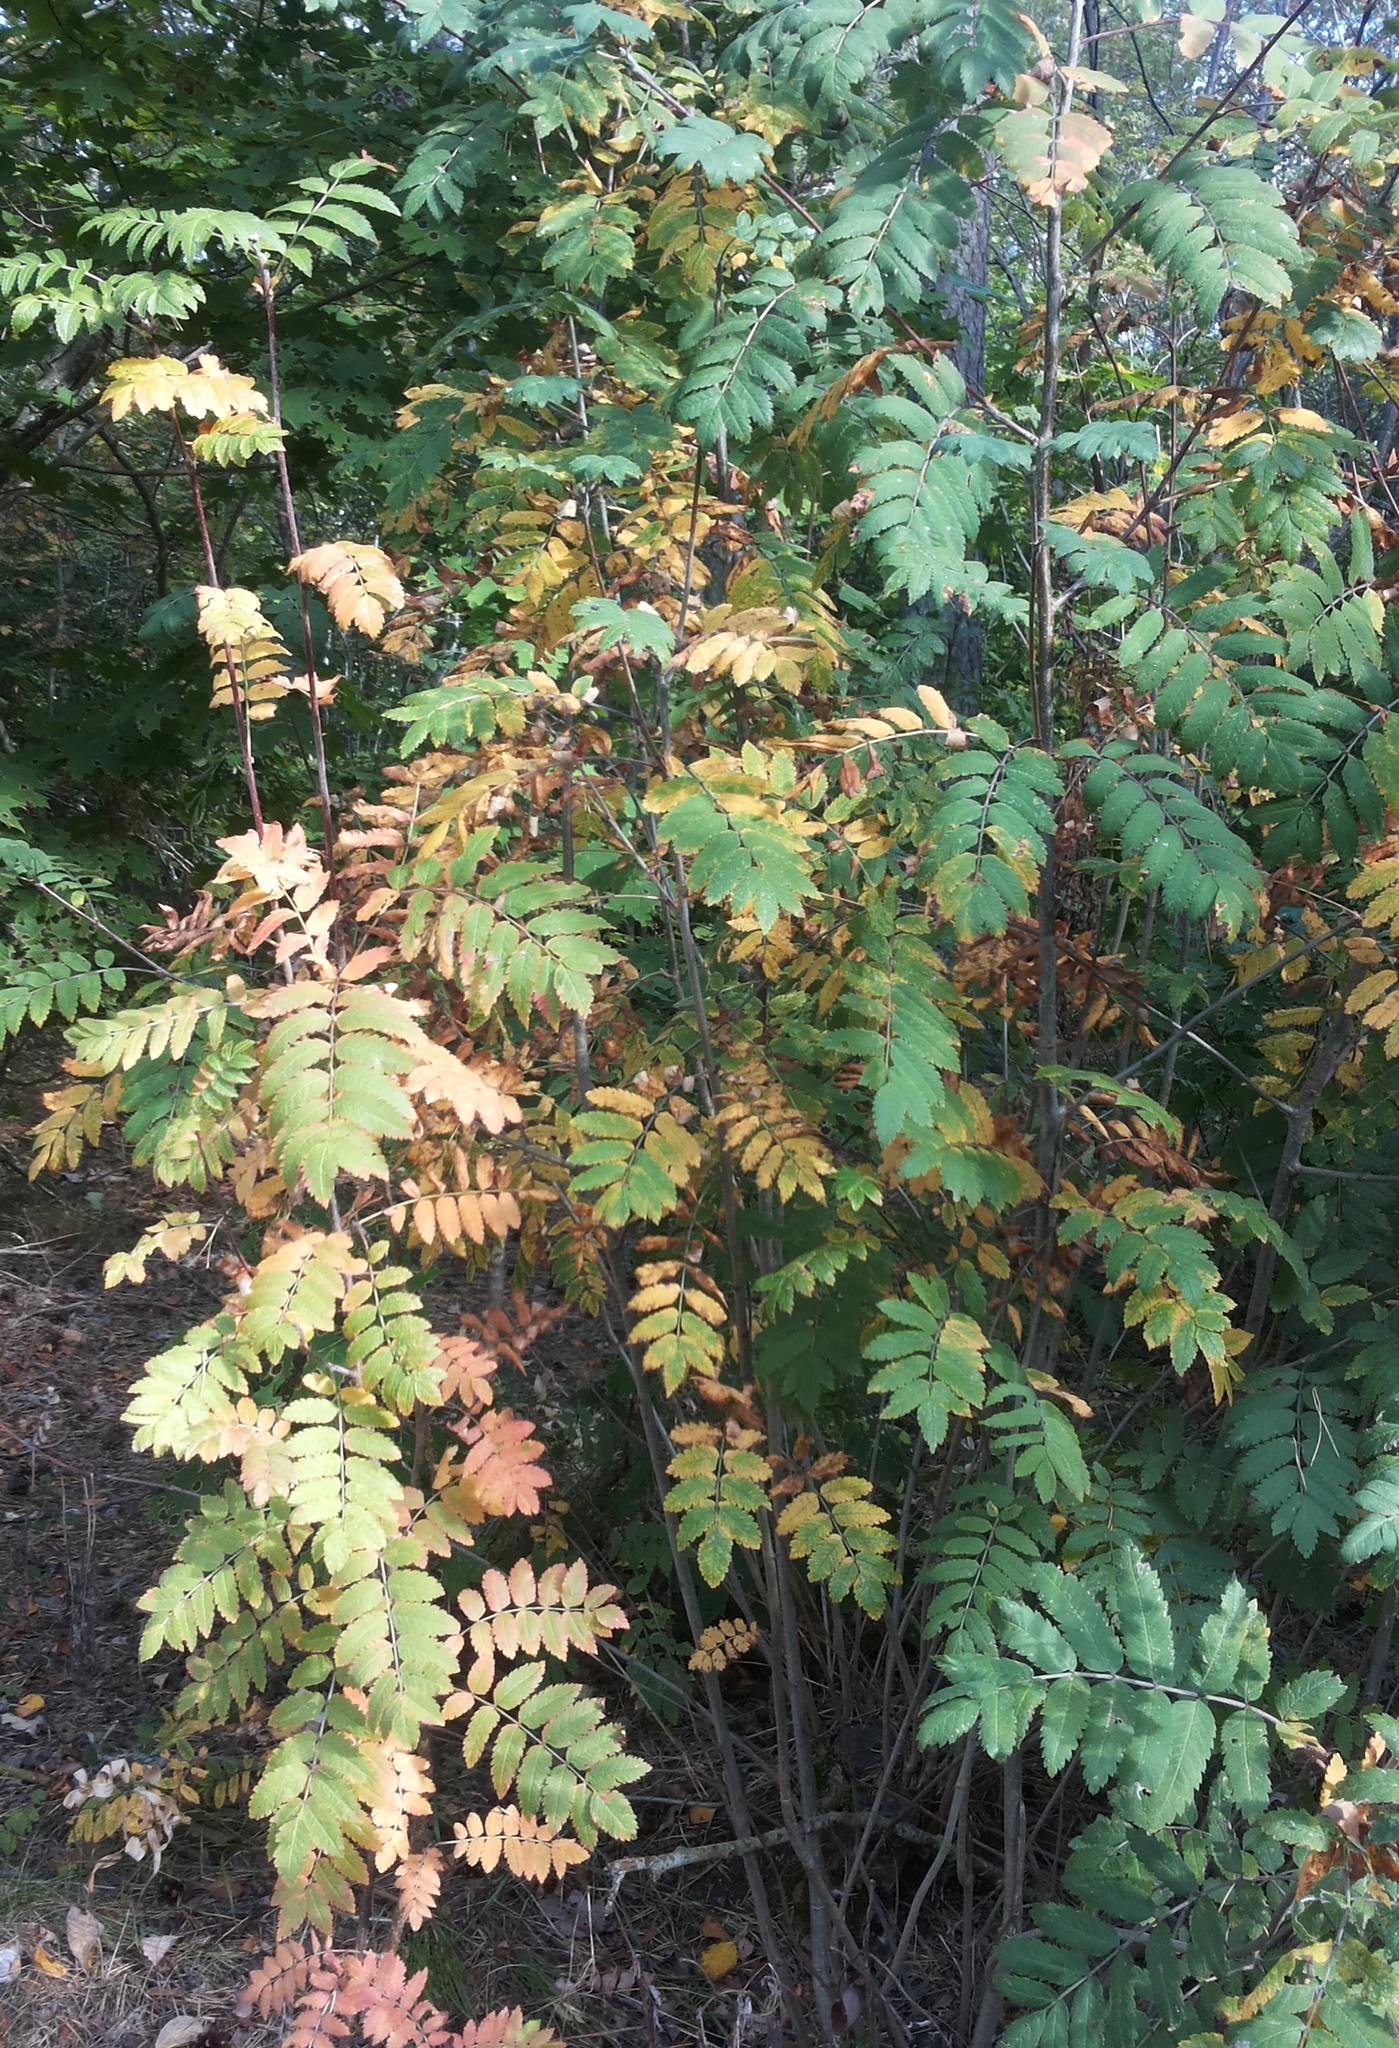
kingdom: Plantae
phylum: Tracheophyta
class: Magnoliopsida
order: Rosales
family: Rosaceae
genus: Sorbus
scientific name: Sorbus aucuparia
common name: Rowan
